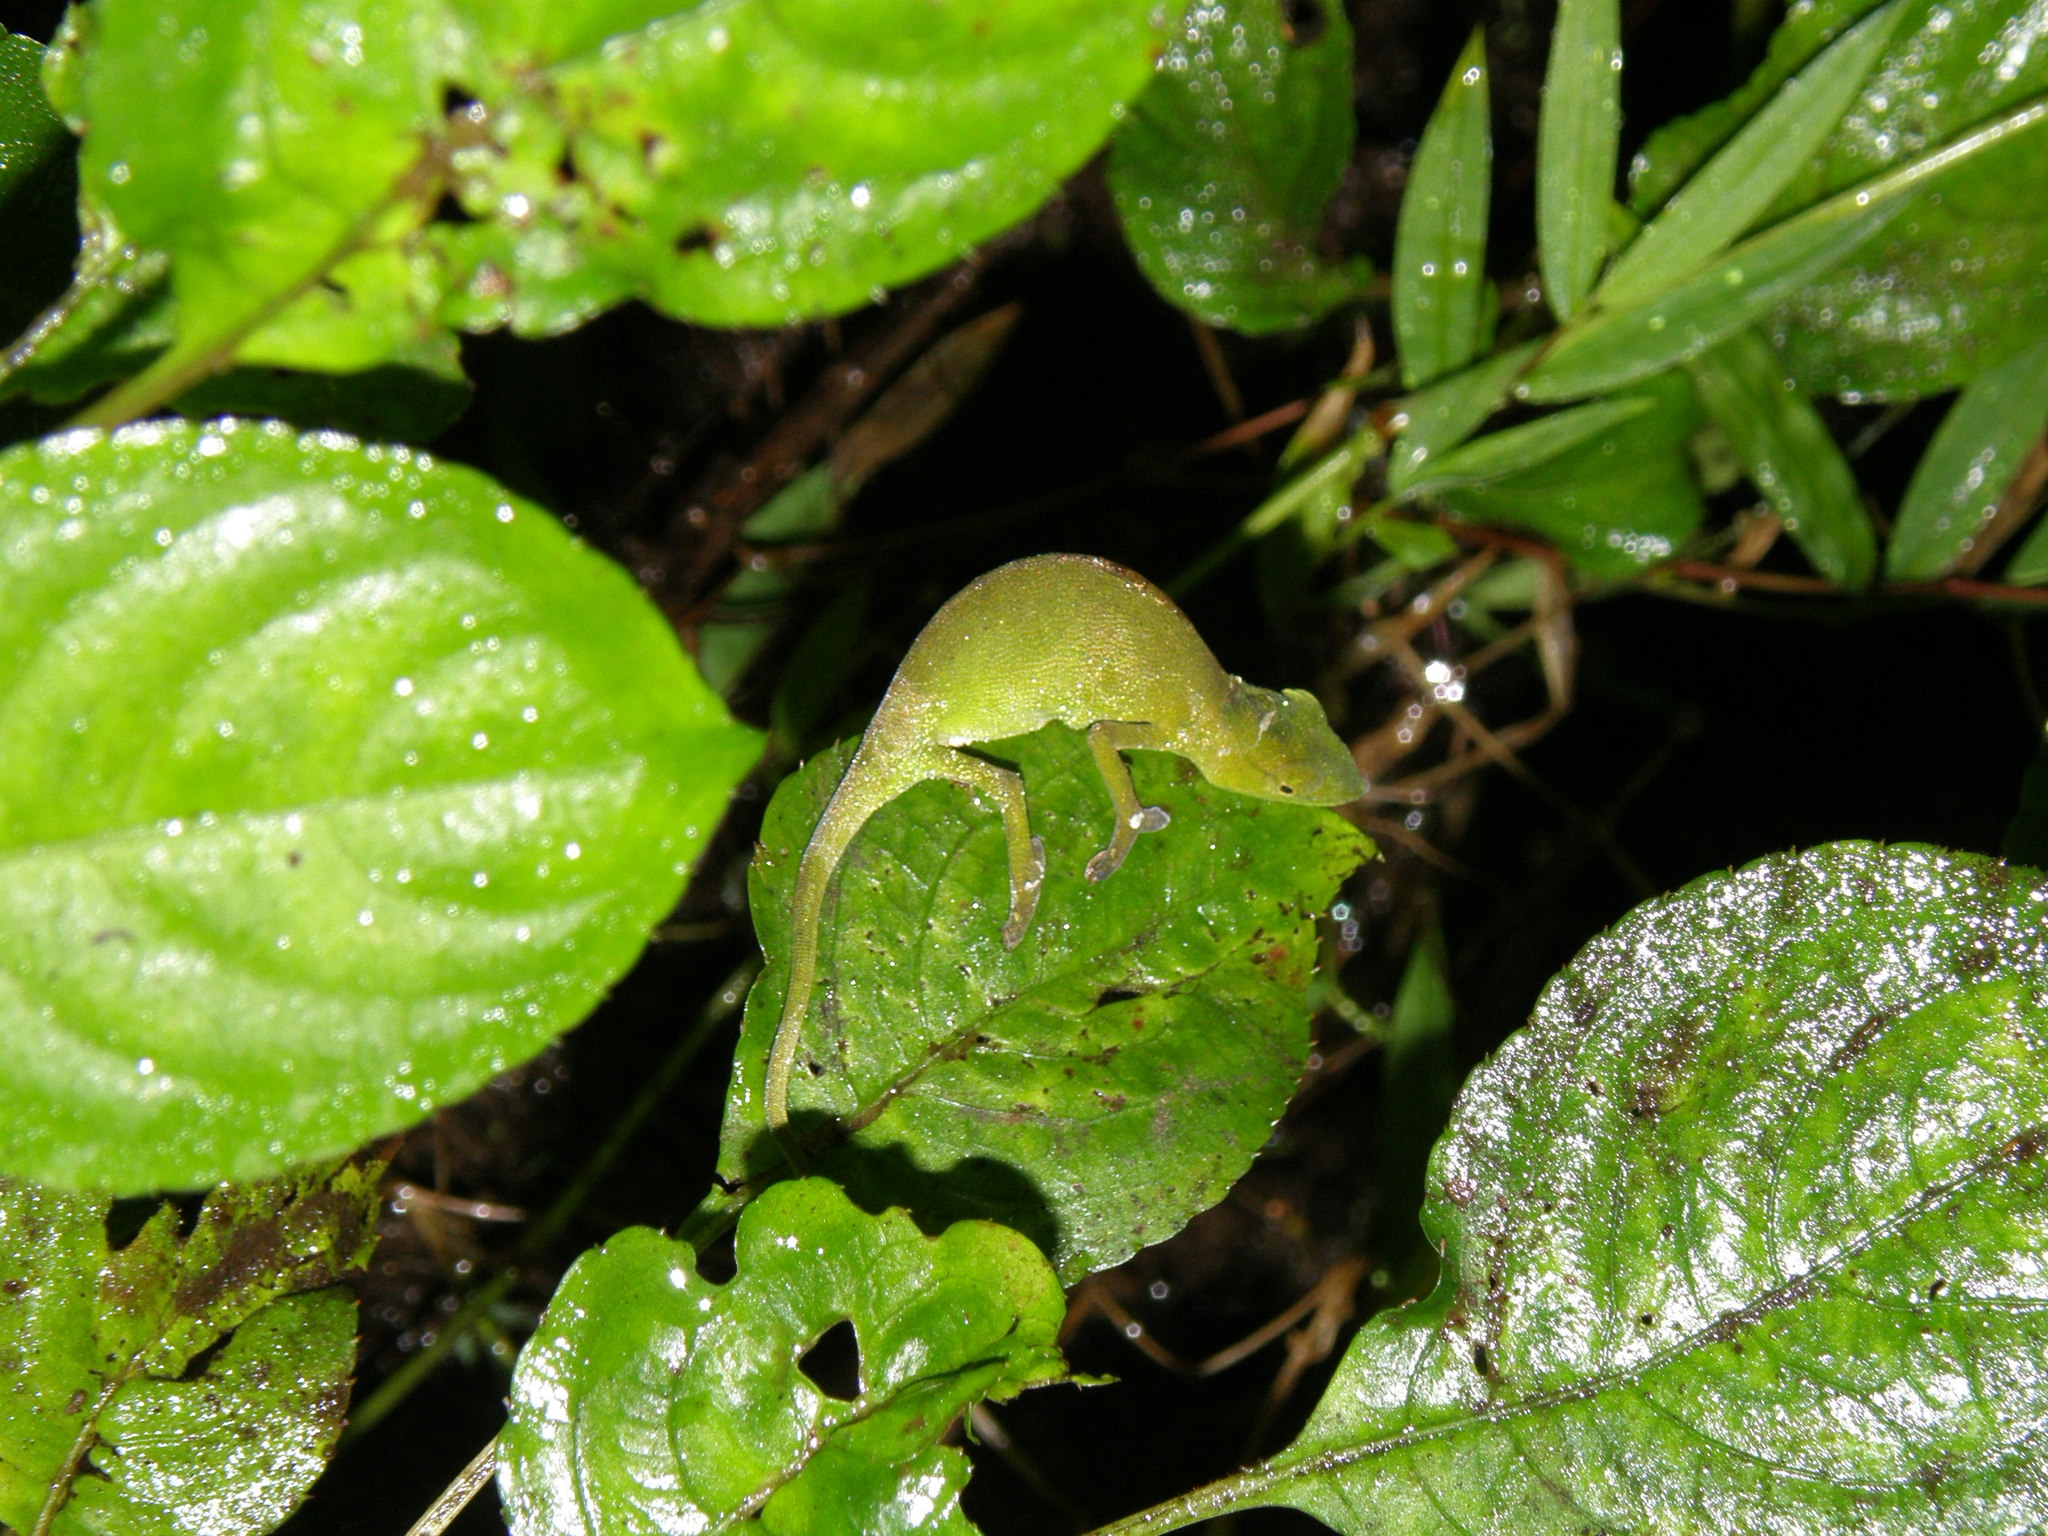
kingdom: Animalia
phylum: Chordata
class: Squamata
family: Chamaeleonidae
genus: Calumma
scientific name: Calumma glawi
